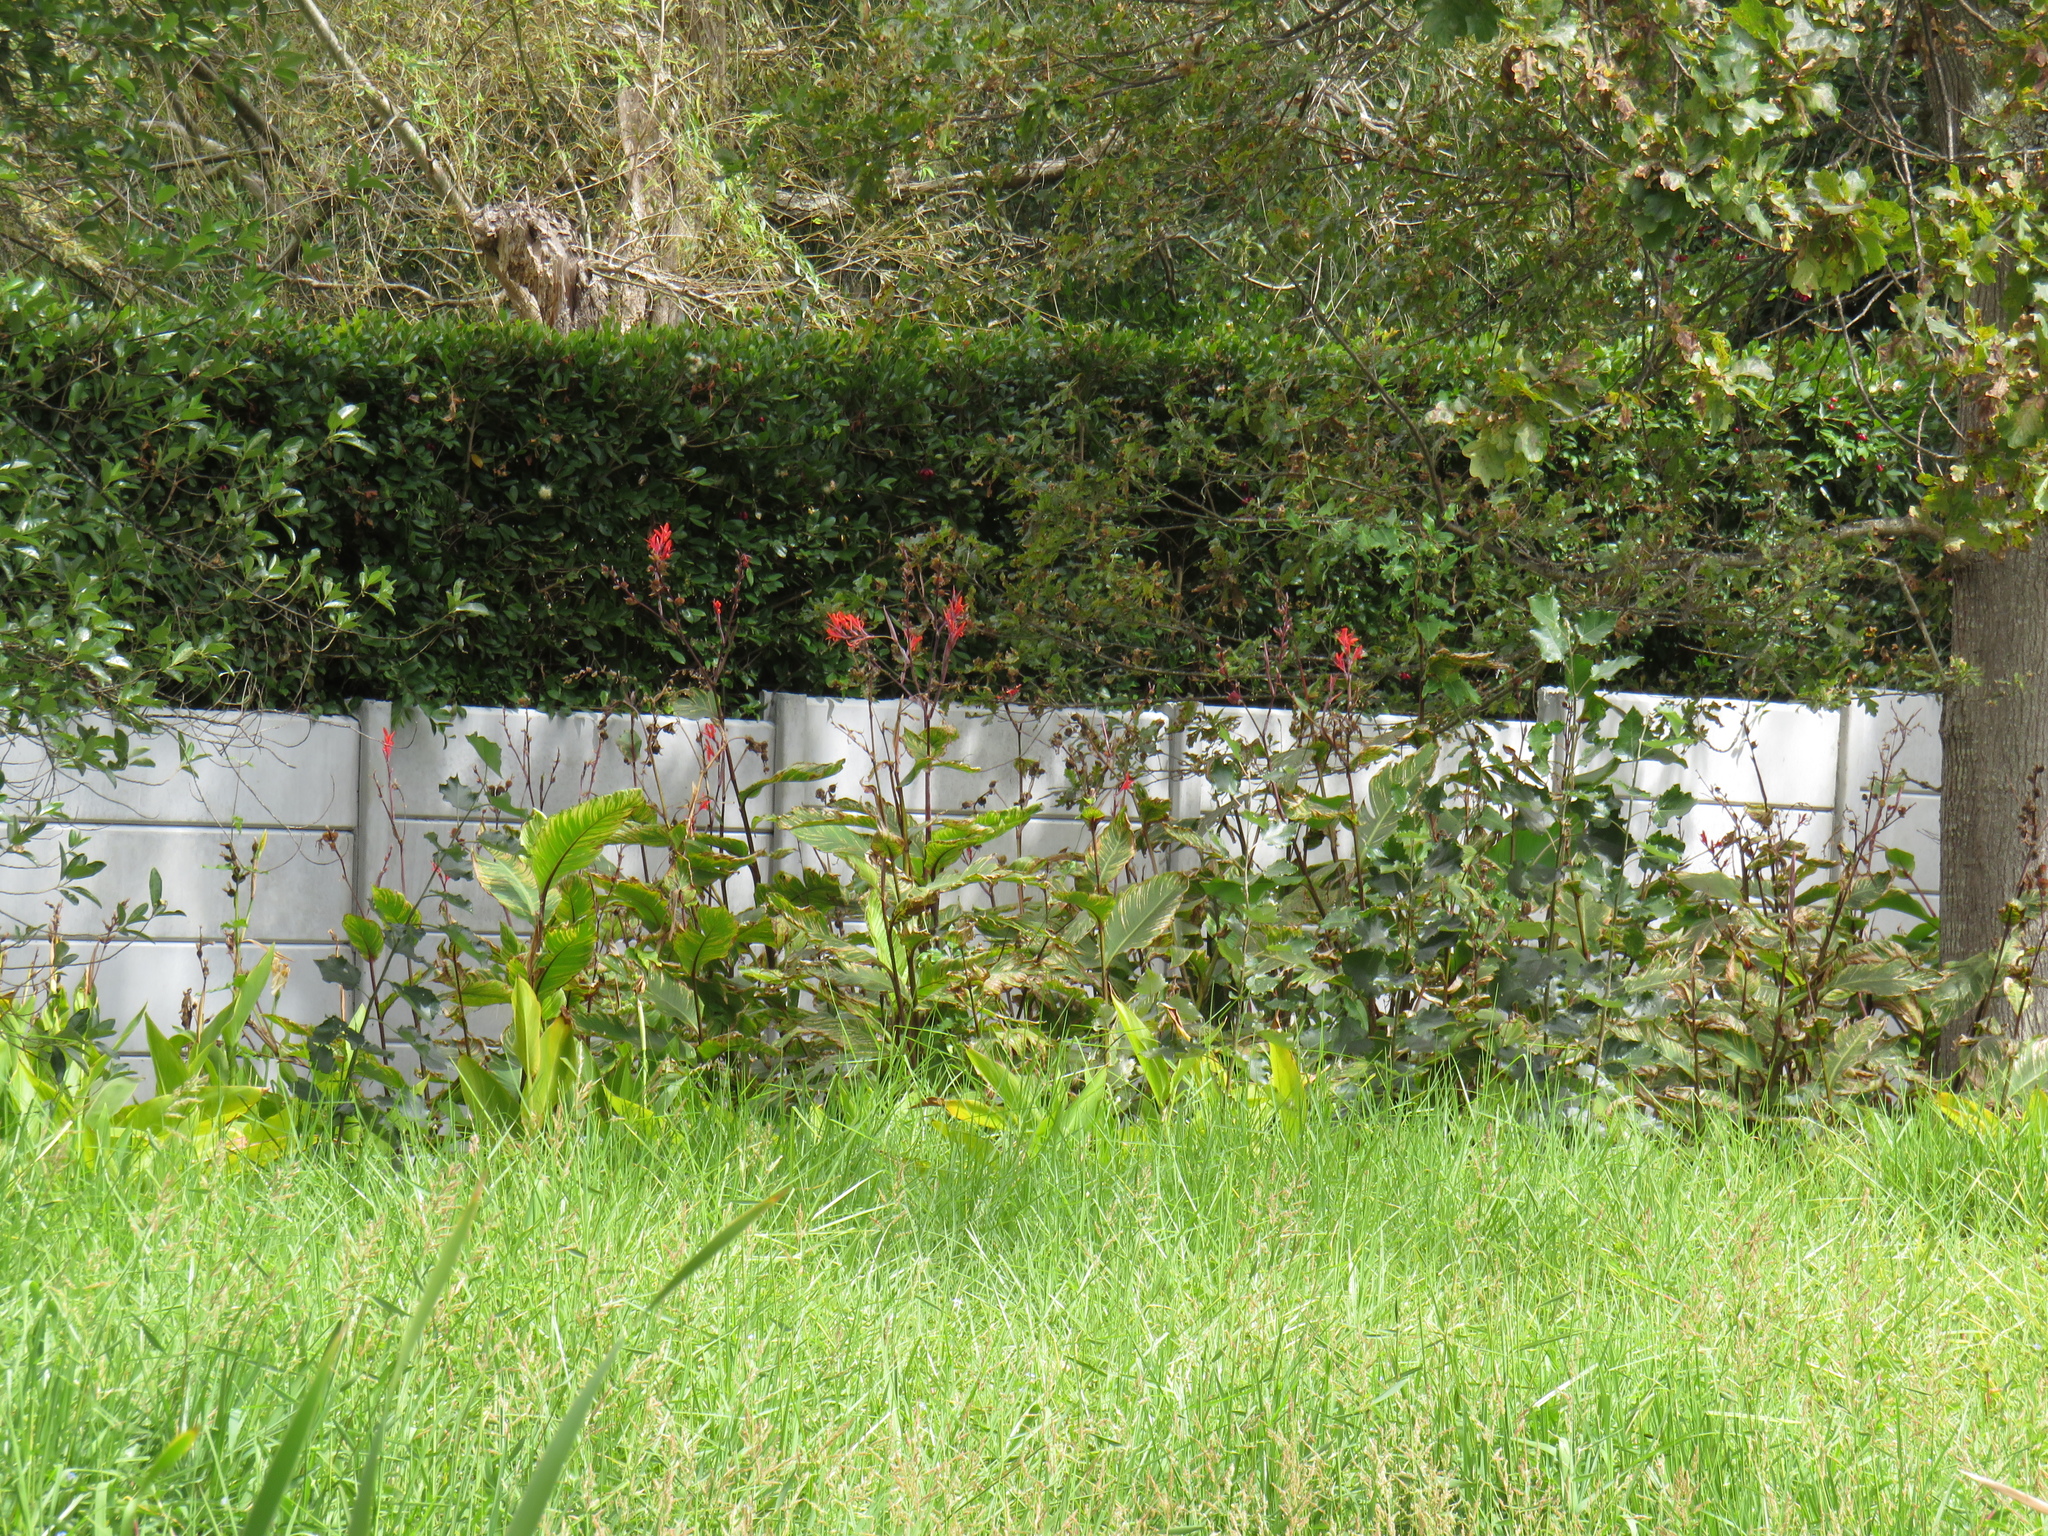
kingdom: Plantae
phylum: Tracheophyta
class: Liliopsida
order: Zingiberales
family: Cannaceae
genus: Canna
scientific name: Canna indica
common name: Indian shot
